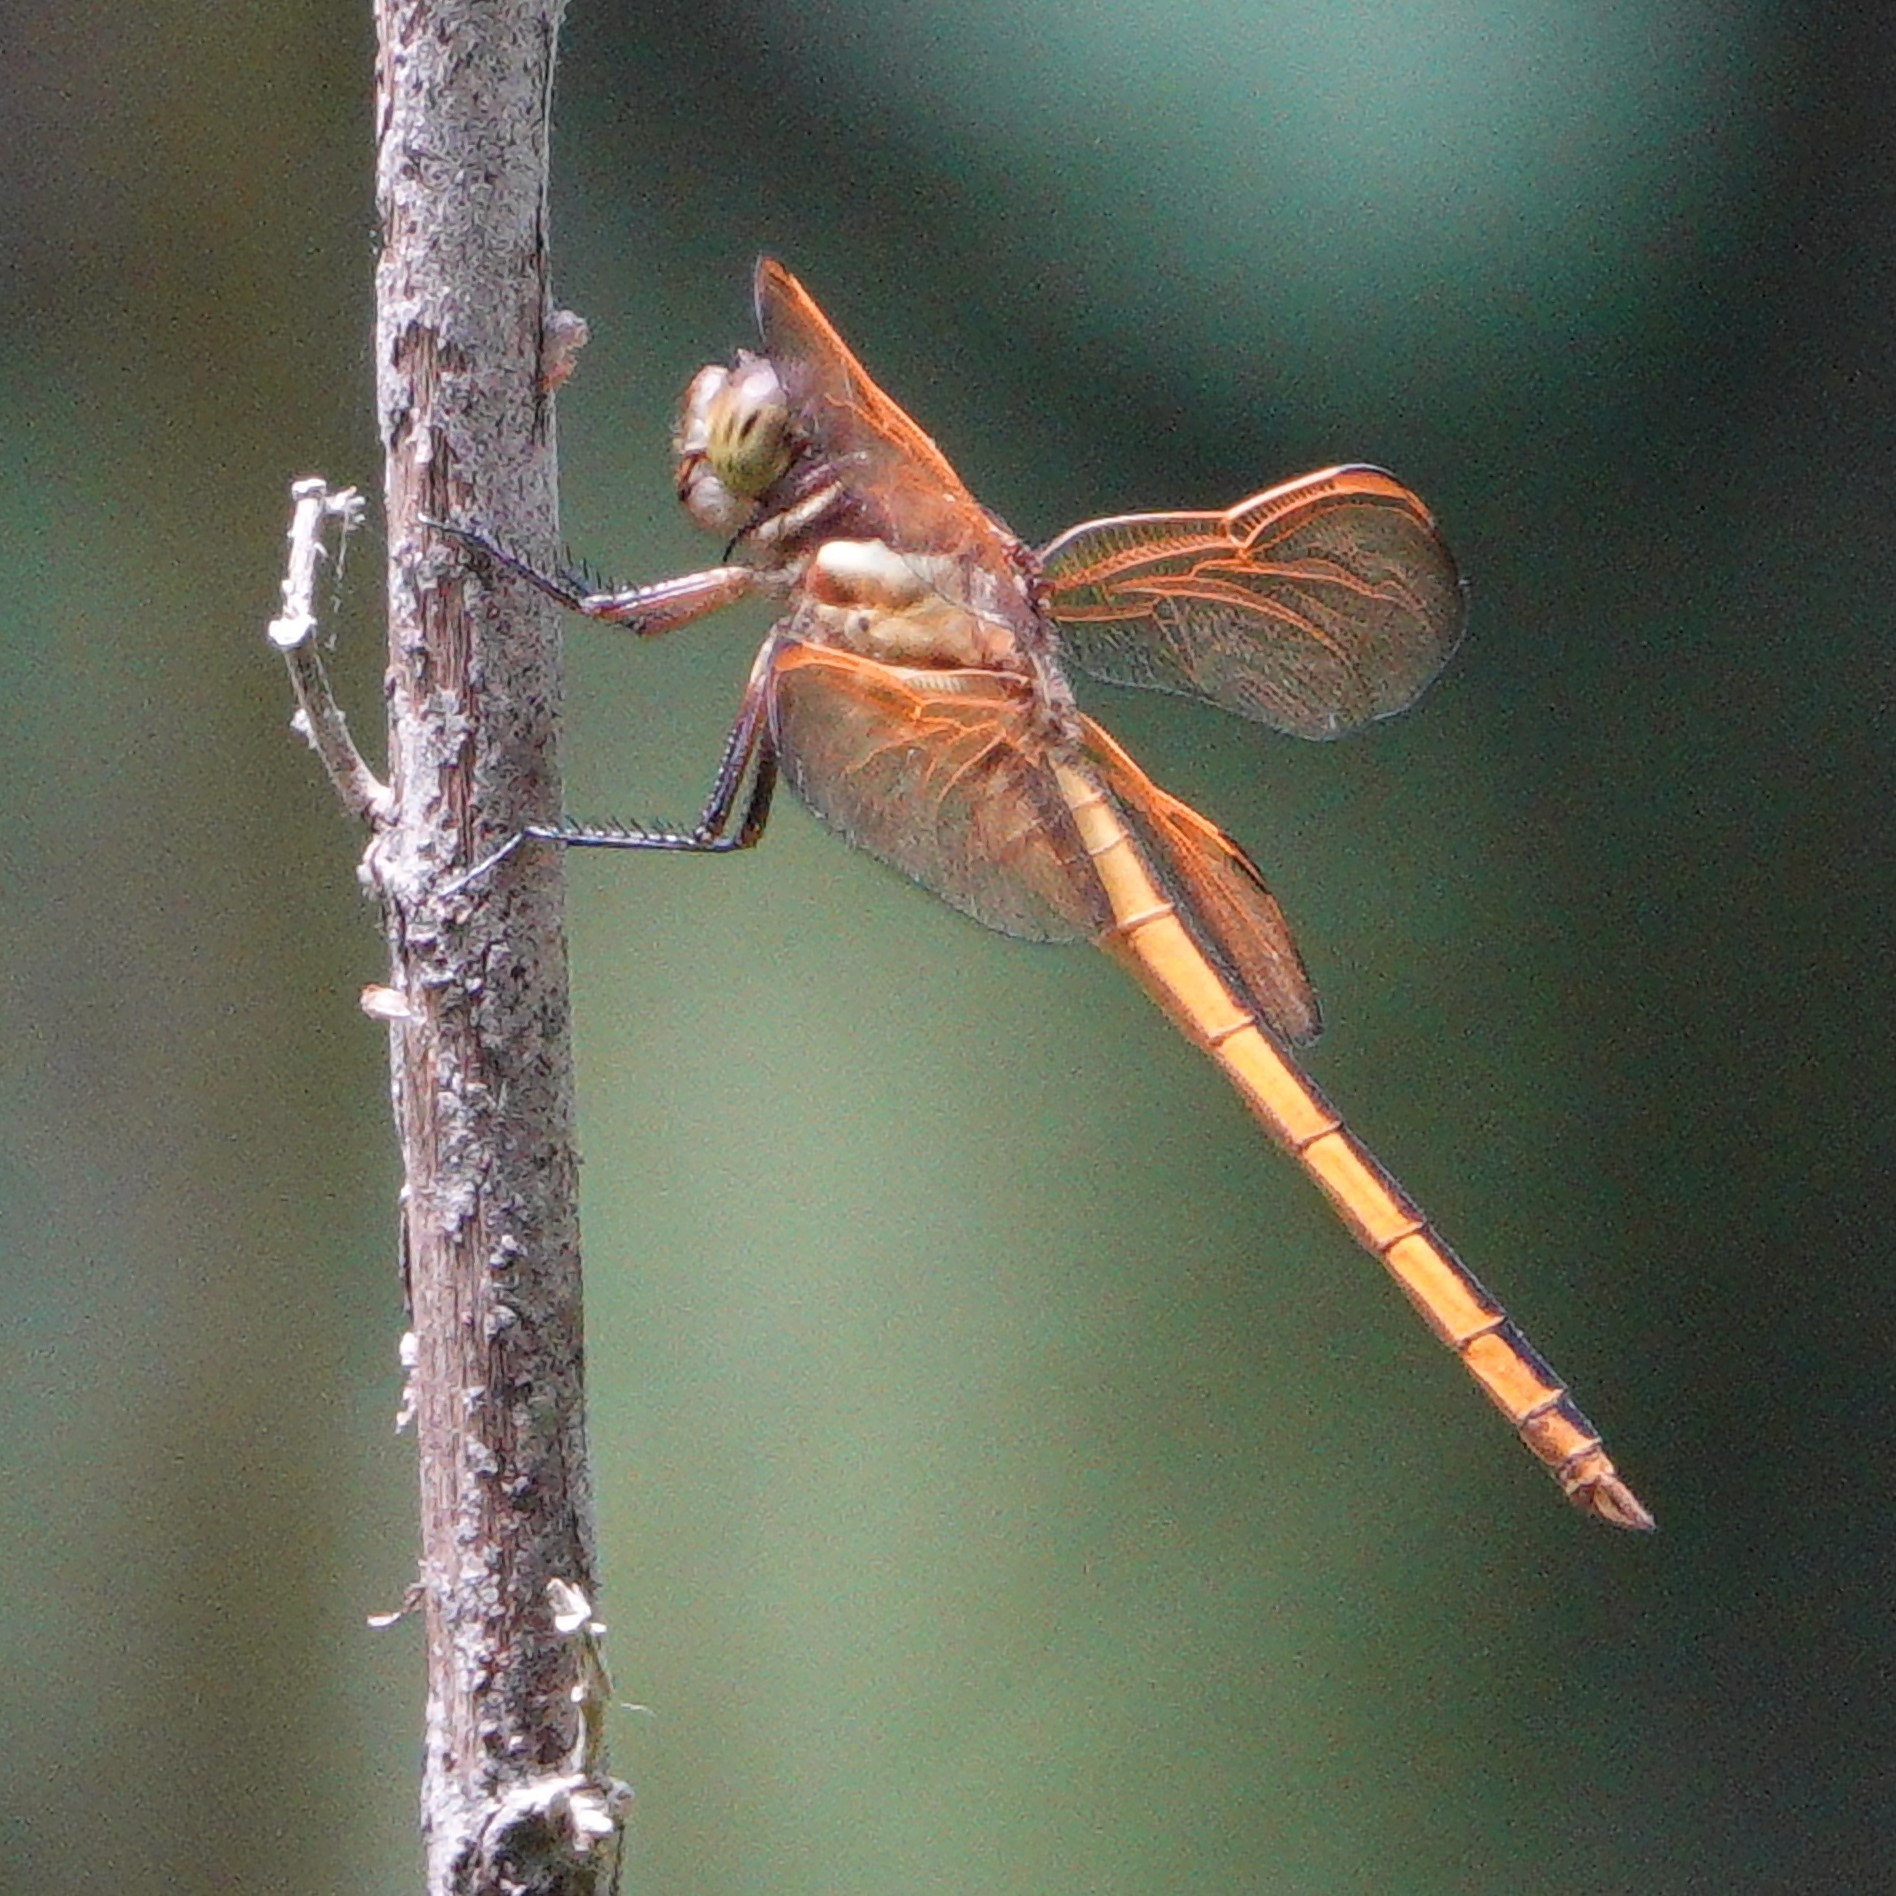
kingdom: Animalia
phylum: Arthropoda
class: Insecta
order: Odonata
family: Libellulidae
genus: Libellula
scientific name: Libellula auripennis
